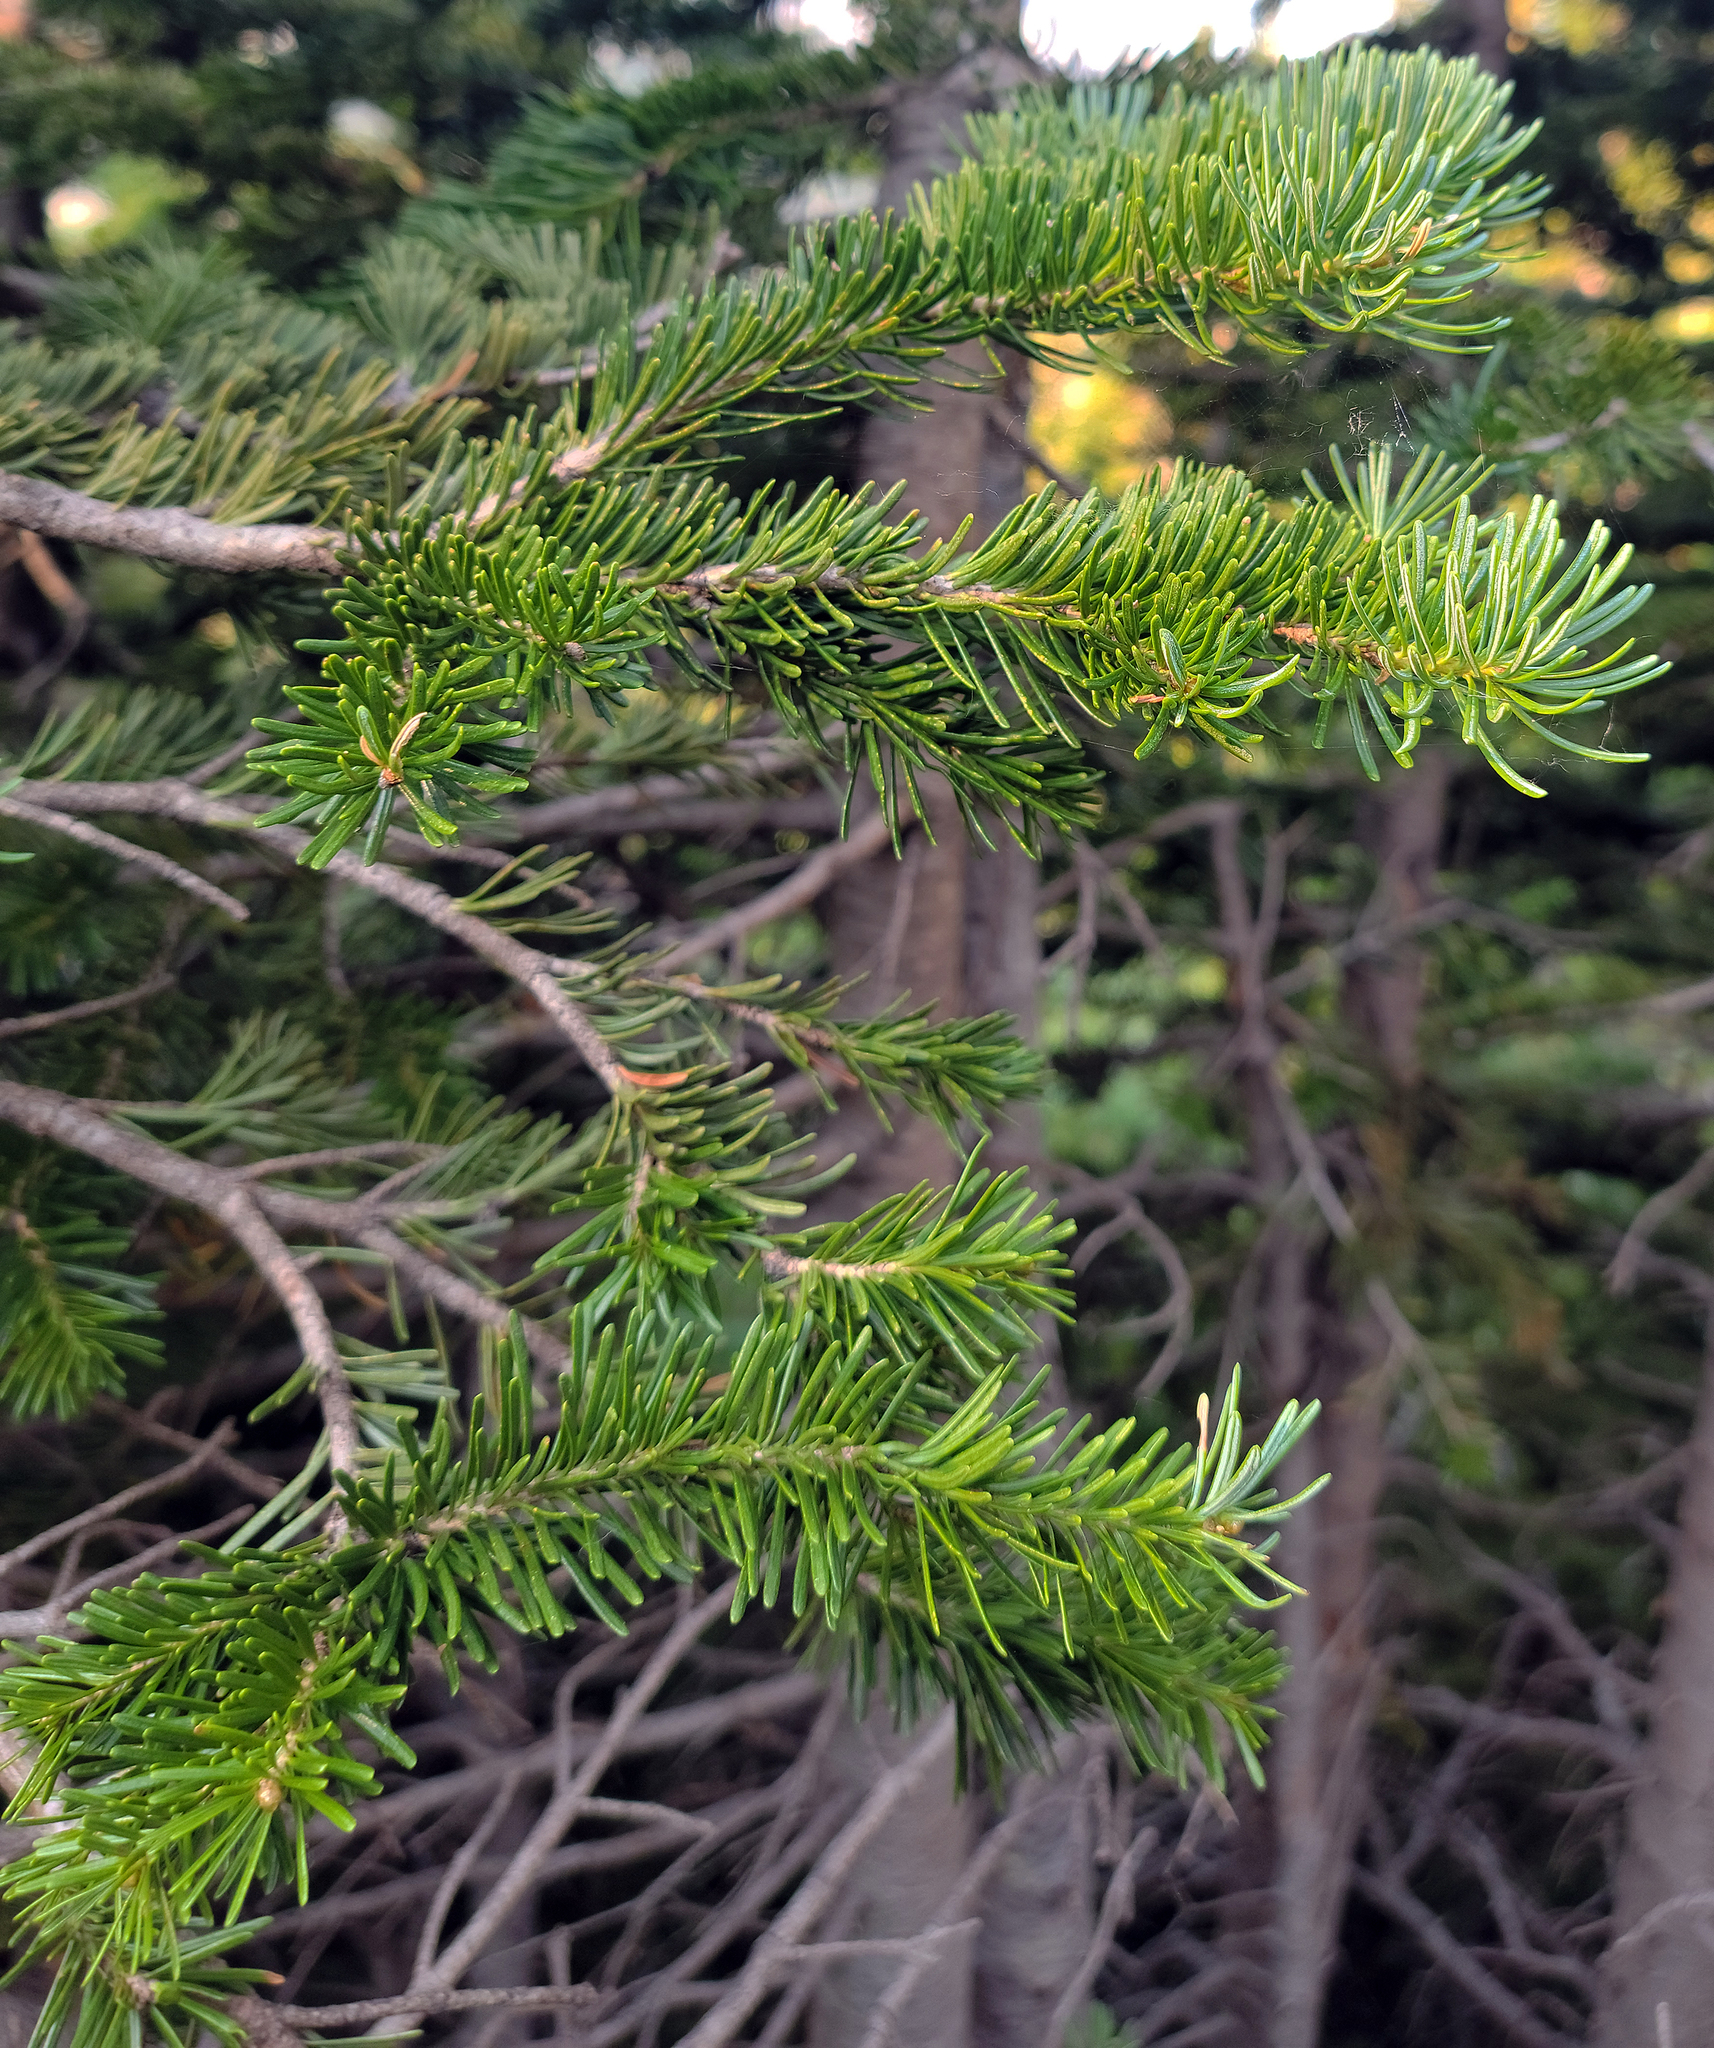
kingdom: Plantae
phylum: Tracheophyta
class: Pinopsida
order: Pinales
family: Pinaceae
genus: Abies
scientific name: Abies lasiocarpa
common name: Subalpine fir
